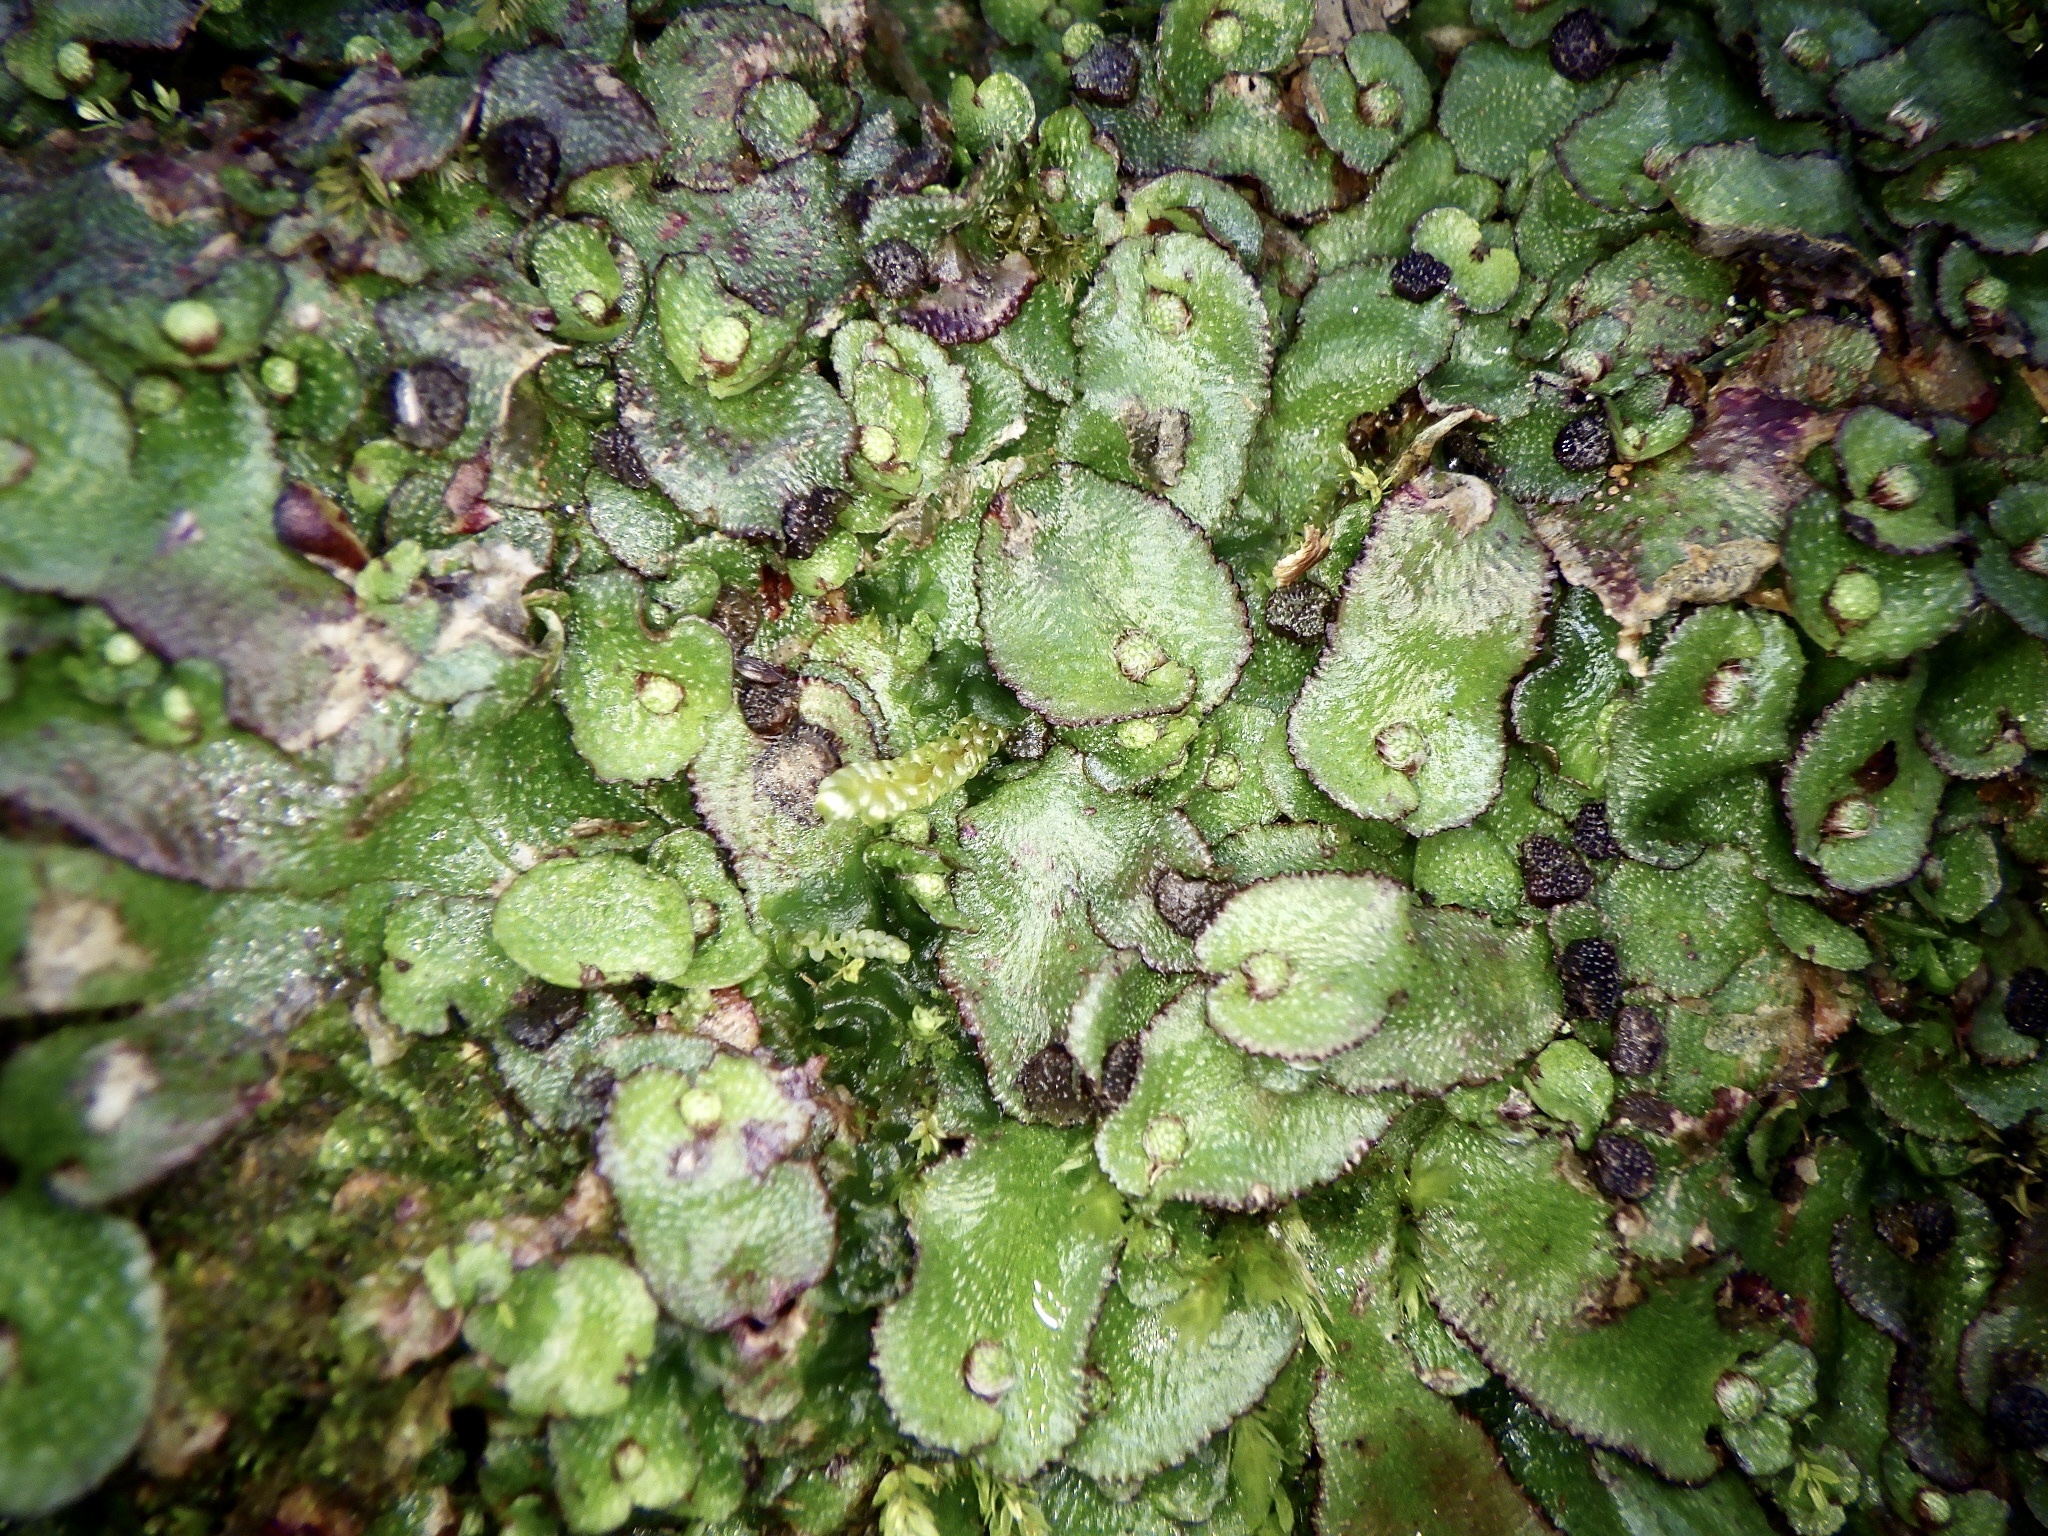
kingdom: Plantae
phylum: Marchantiophyta
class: Marchantiopsida
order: Marchantiales
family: Aytoniaceae
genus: Reboulia
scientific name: Reboulia hemisphaerica
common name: Purple-margined liverwort
